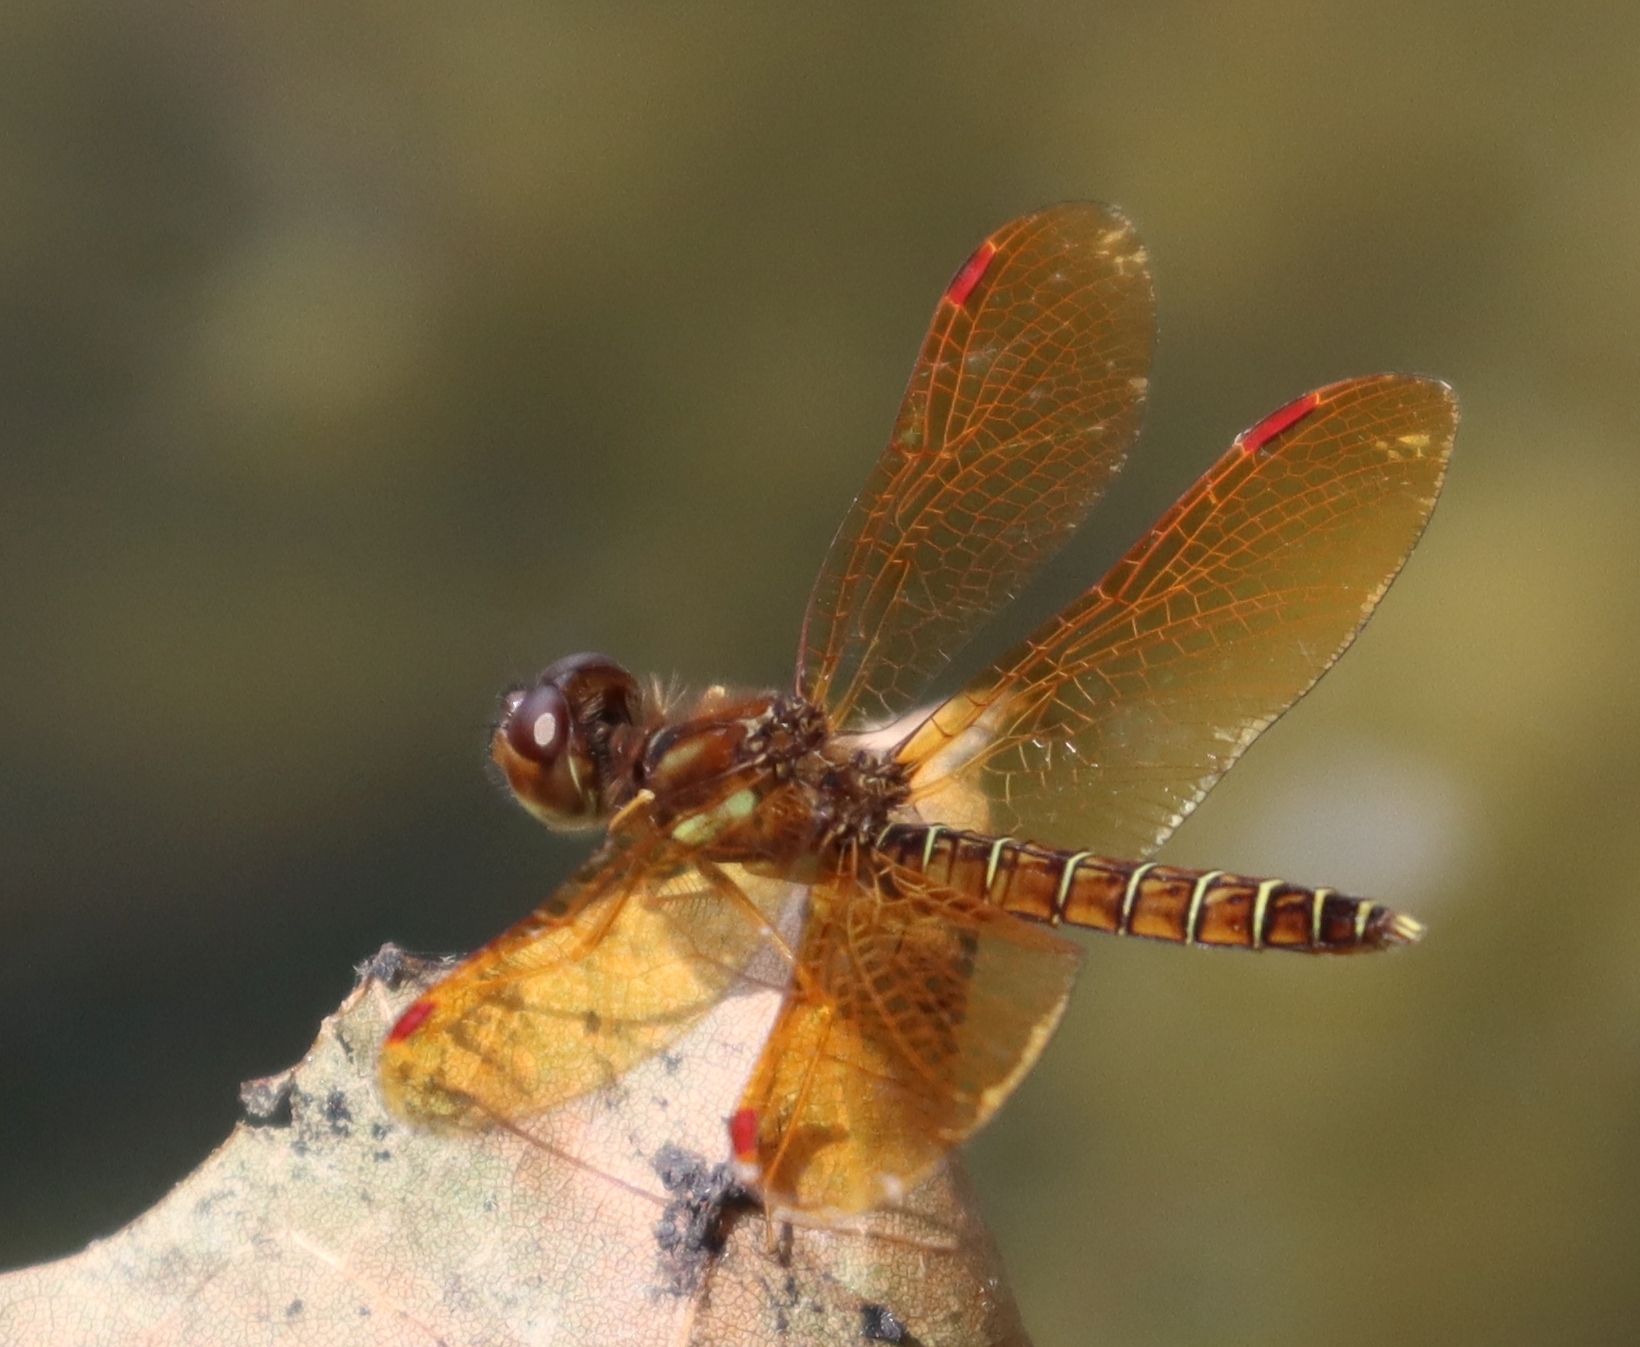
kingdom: Animalia
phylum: Arthropoda
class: Insecta
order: Odonata
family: Libellulidae
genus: Perithemis
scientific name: Perithemis tenera
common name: Eastern amberwing
